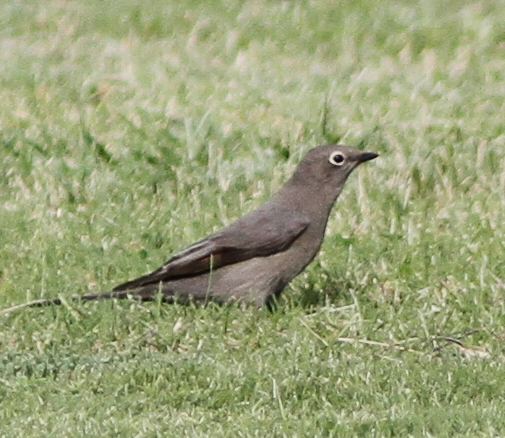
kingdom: Animalia
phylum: Chordata
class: Aves
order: Passeriformes
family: Turdidae
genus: Myadestes
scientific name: Myadestes townsendi
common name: Townsend's solitaire
